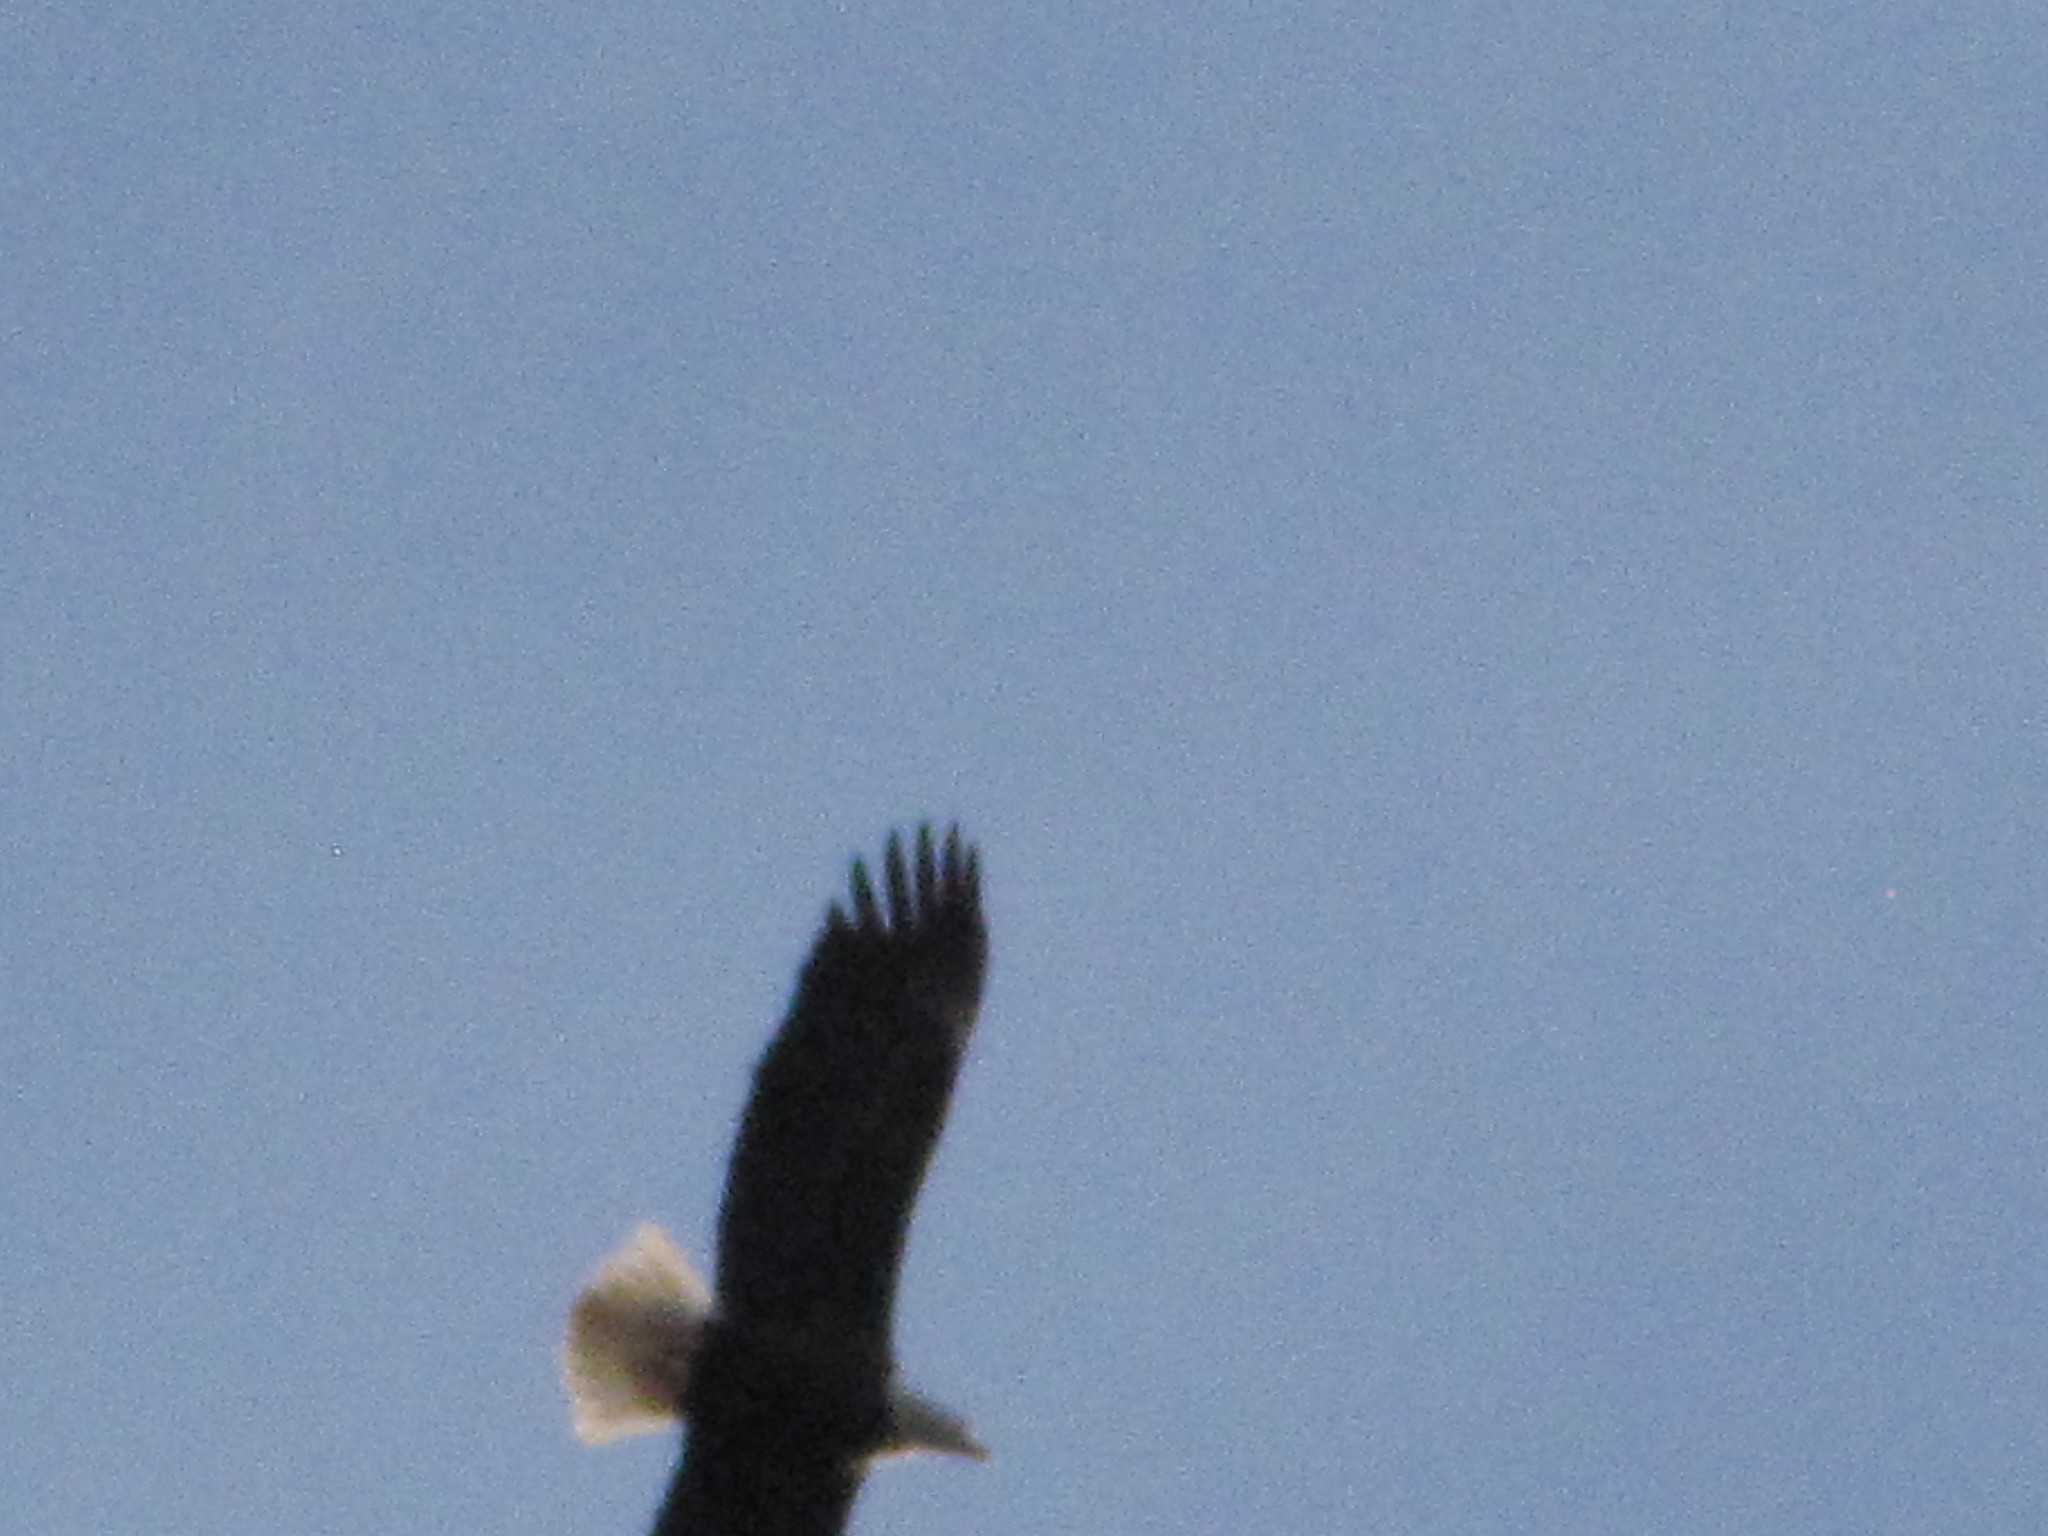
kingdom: Animalia
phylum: Chordata
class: Aves
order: Accipitriformes
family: Accipitridae
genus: Haliaeetus
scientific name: Haliaeetus leucocephalus
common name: Bald eagle
